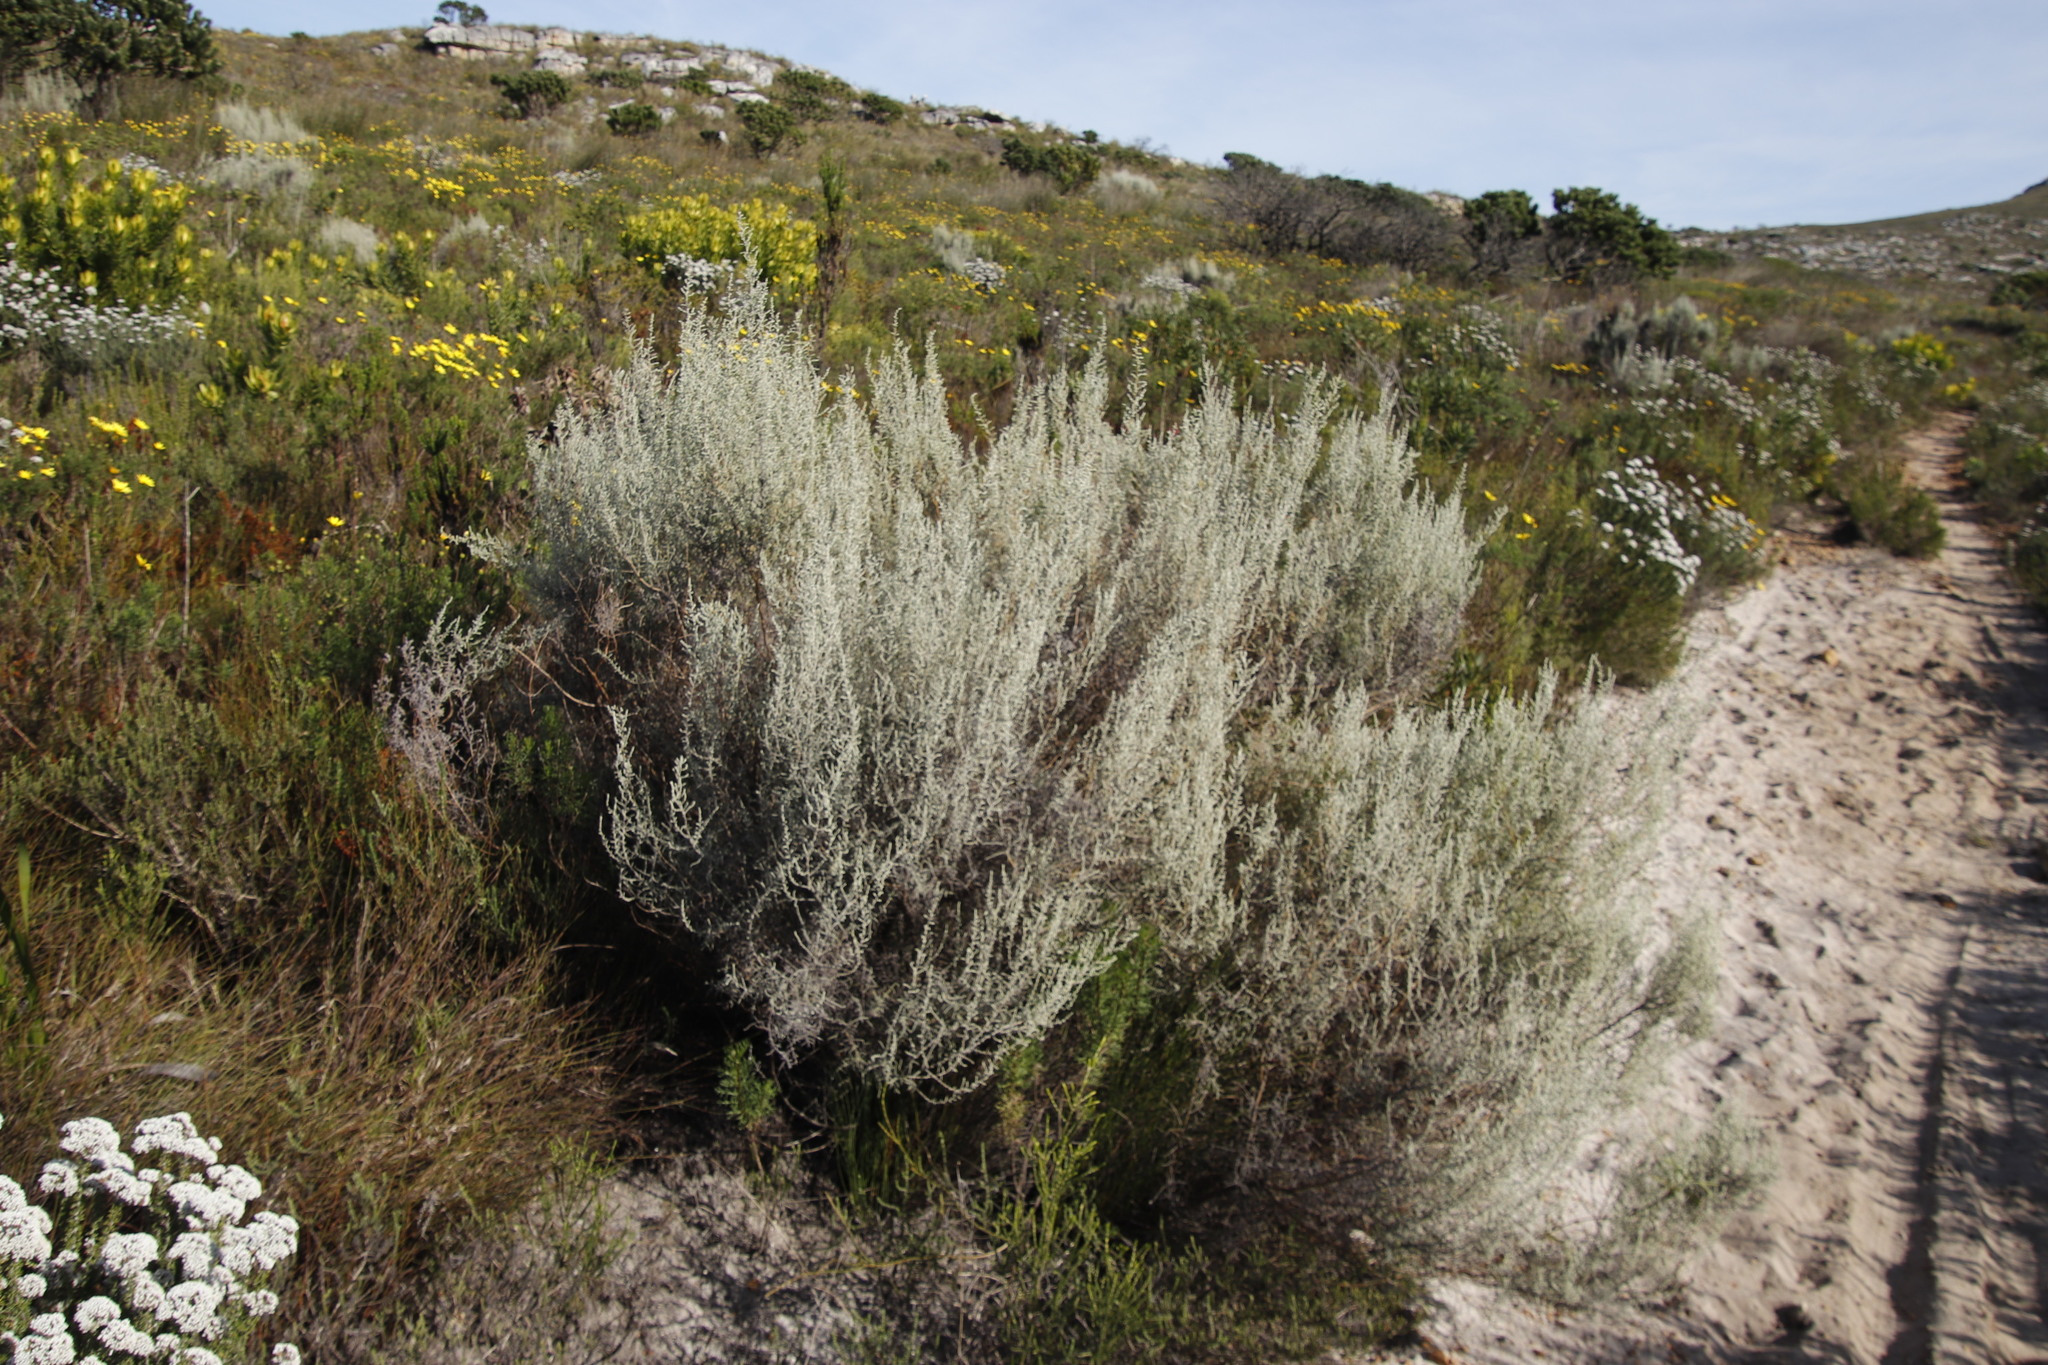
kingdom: Plantae
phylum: Tracheophyta
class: Magnoliopsida
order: Asterales
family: Asteraceae
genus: Seriphium
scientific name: Seriphium plumosum
